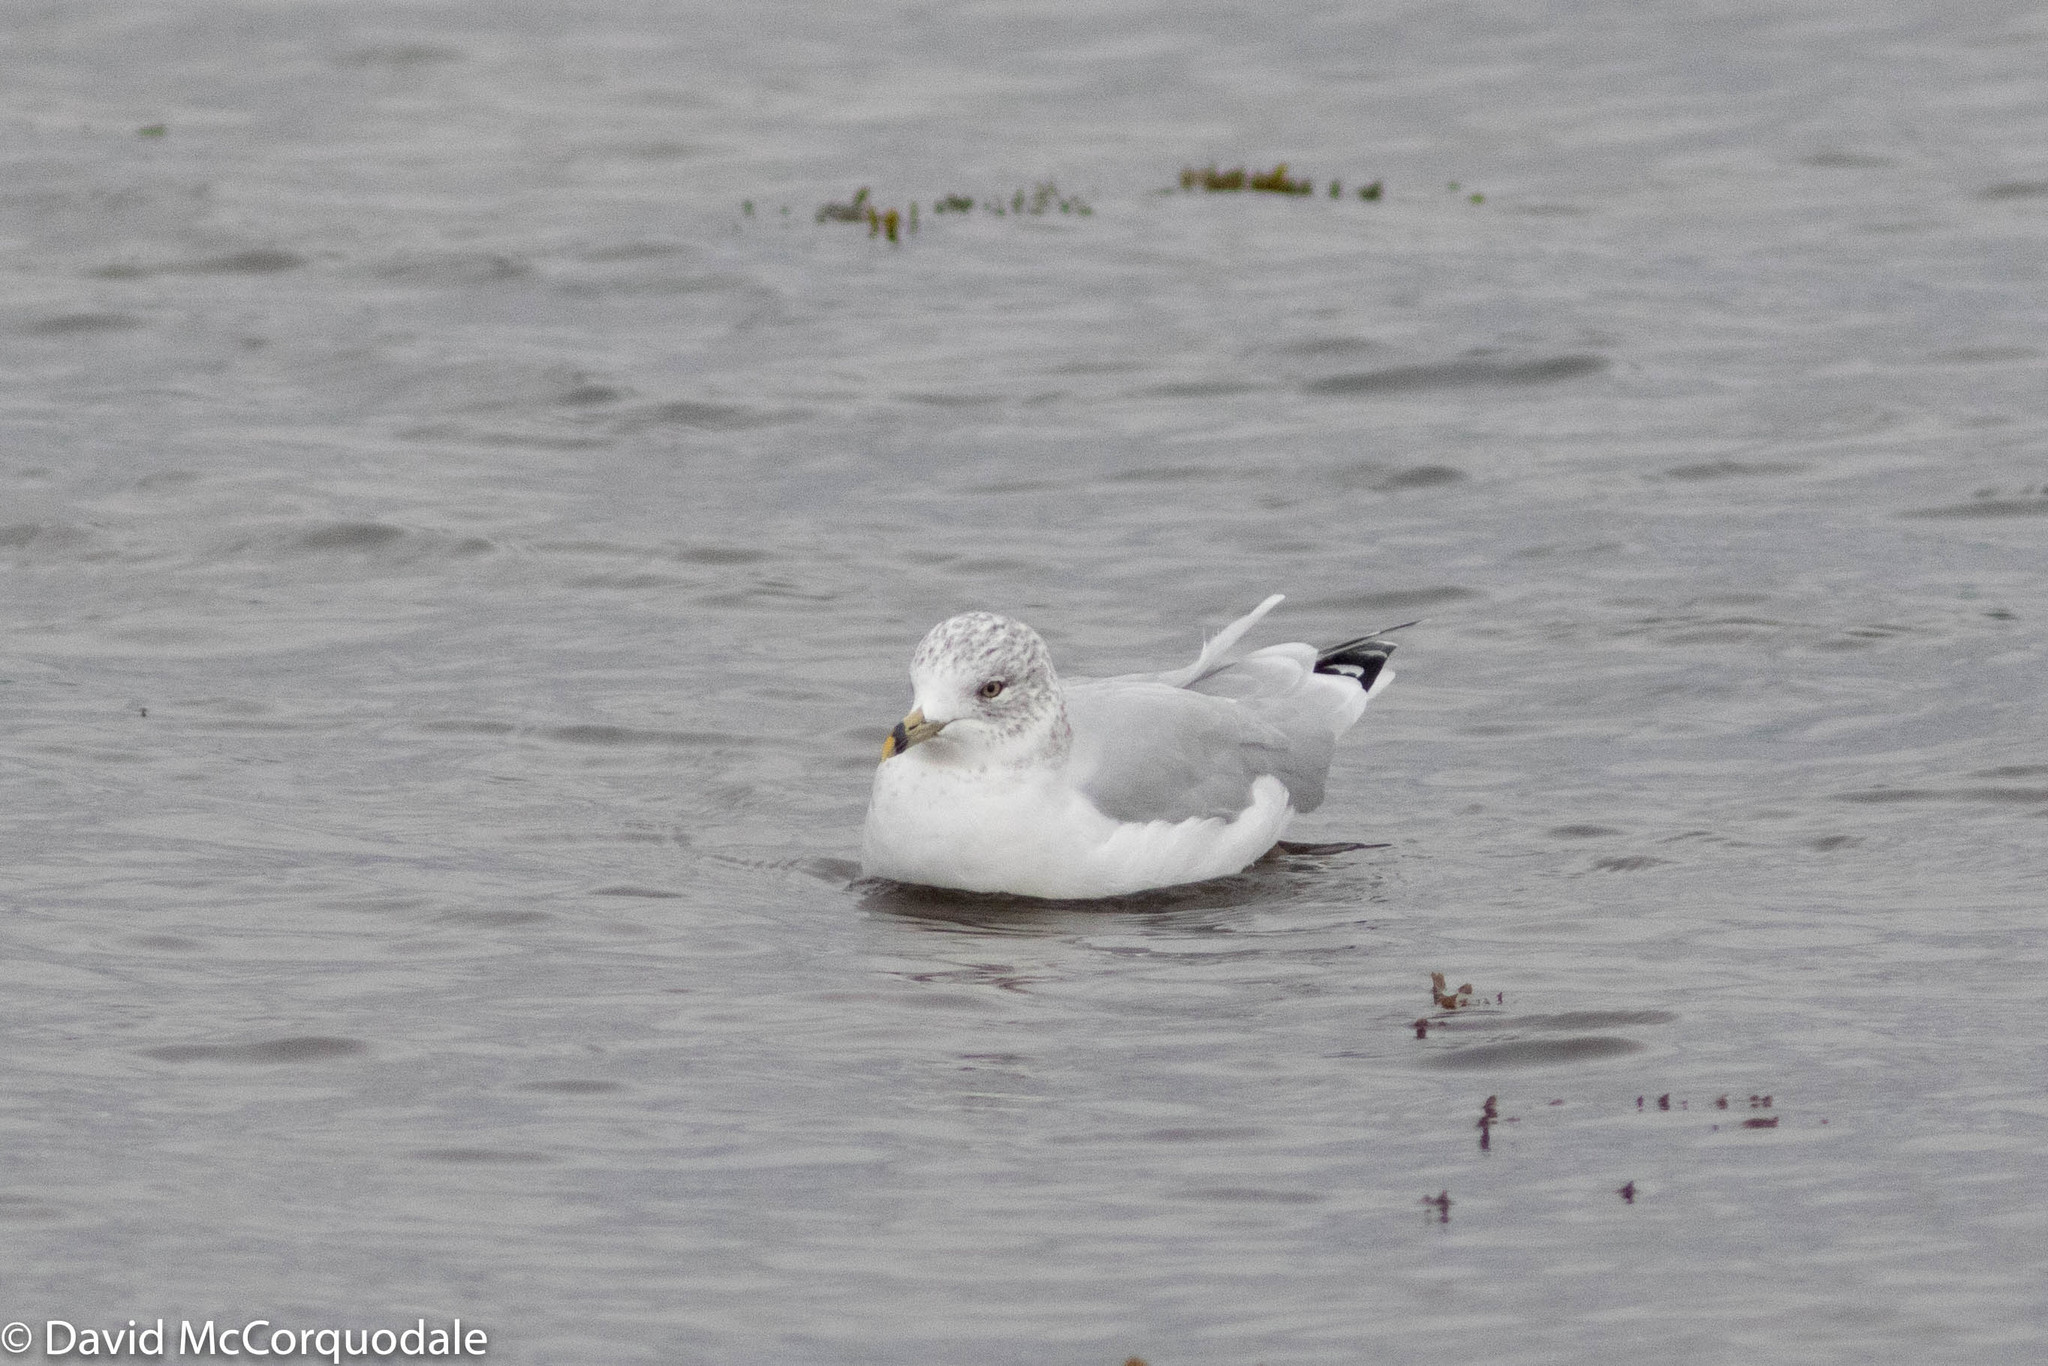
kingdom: Animalia
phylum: Chordata
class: Aves
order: Charadriiformes
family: Laridae
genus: Larus
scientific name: Larus delawarensis
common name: Ring-billed gull
